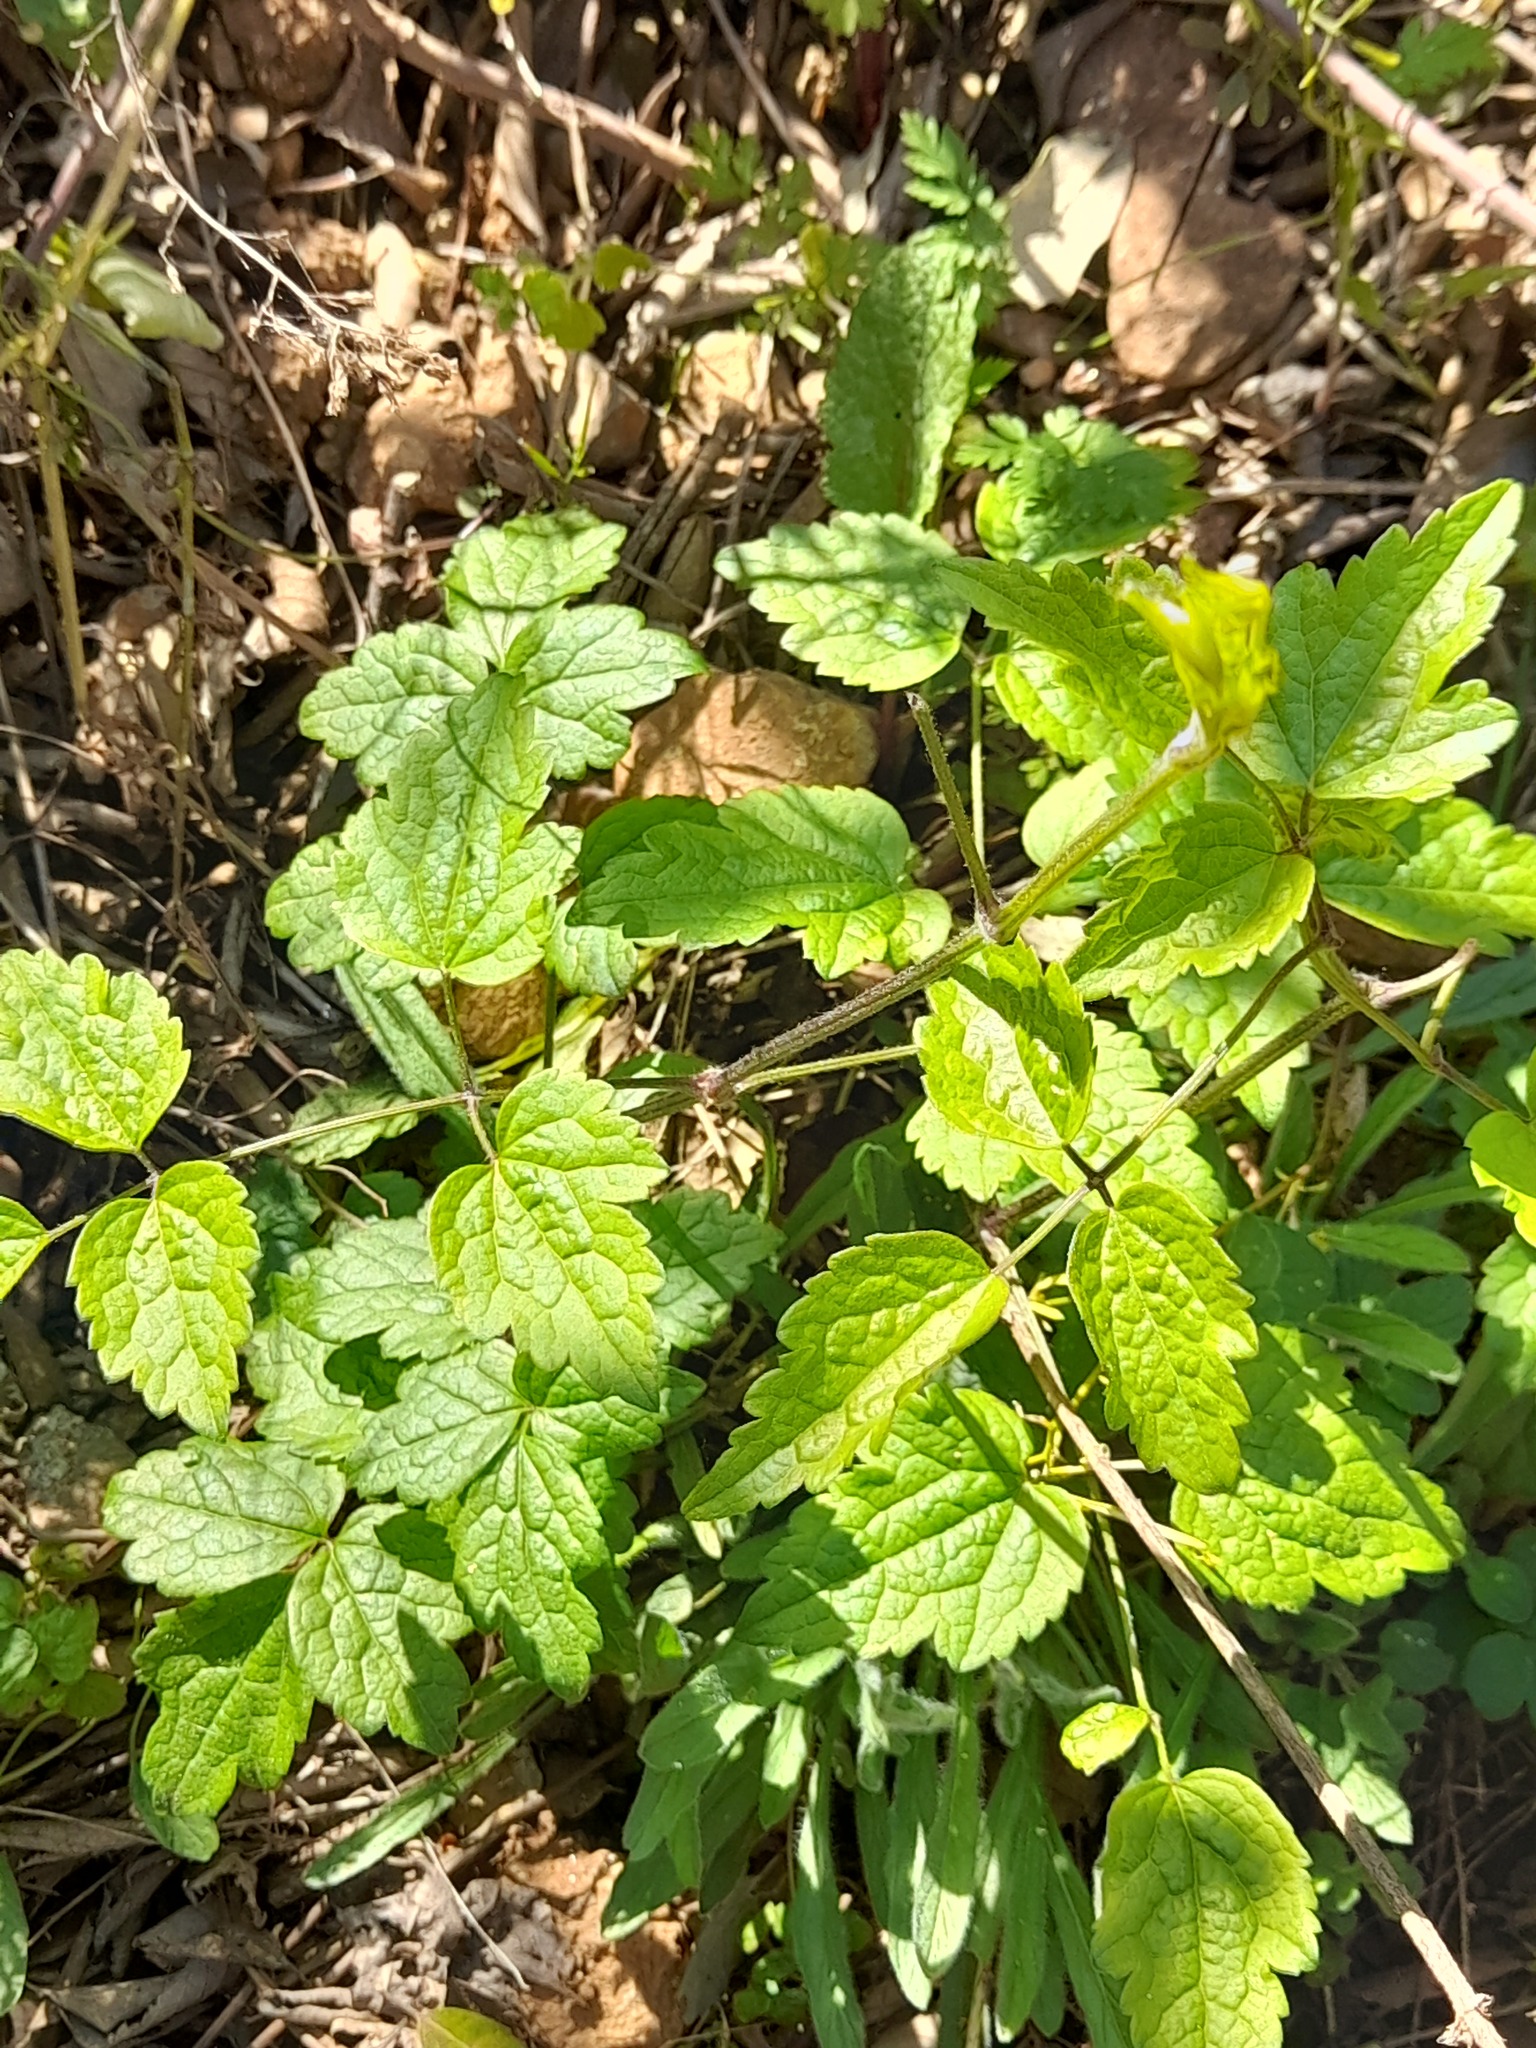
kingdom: Plantae
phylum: Tracheophyta
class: Magnoliopsida
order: Ranunculales
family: Ranunculaceae
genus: Clematis
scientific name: Clematis vitalba
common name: Evergreen clematis
